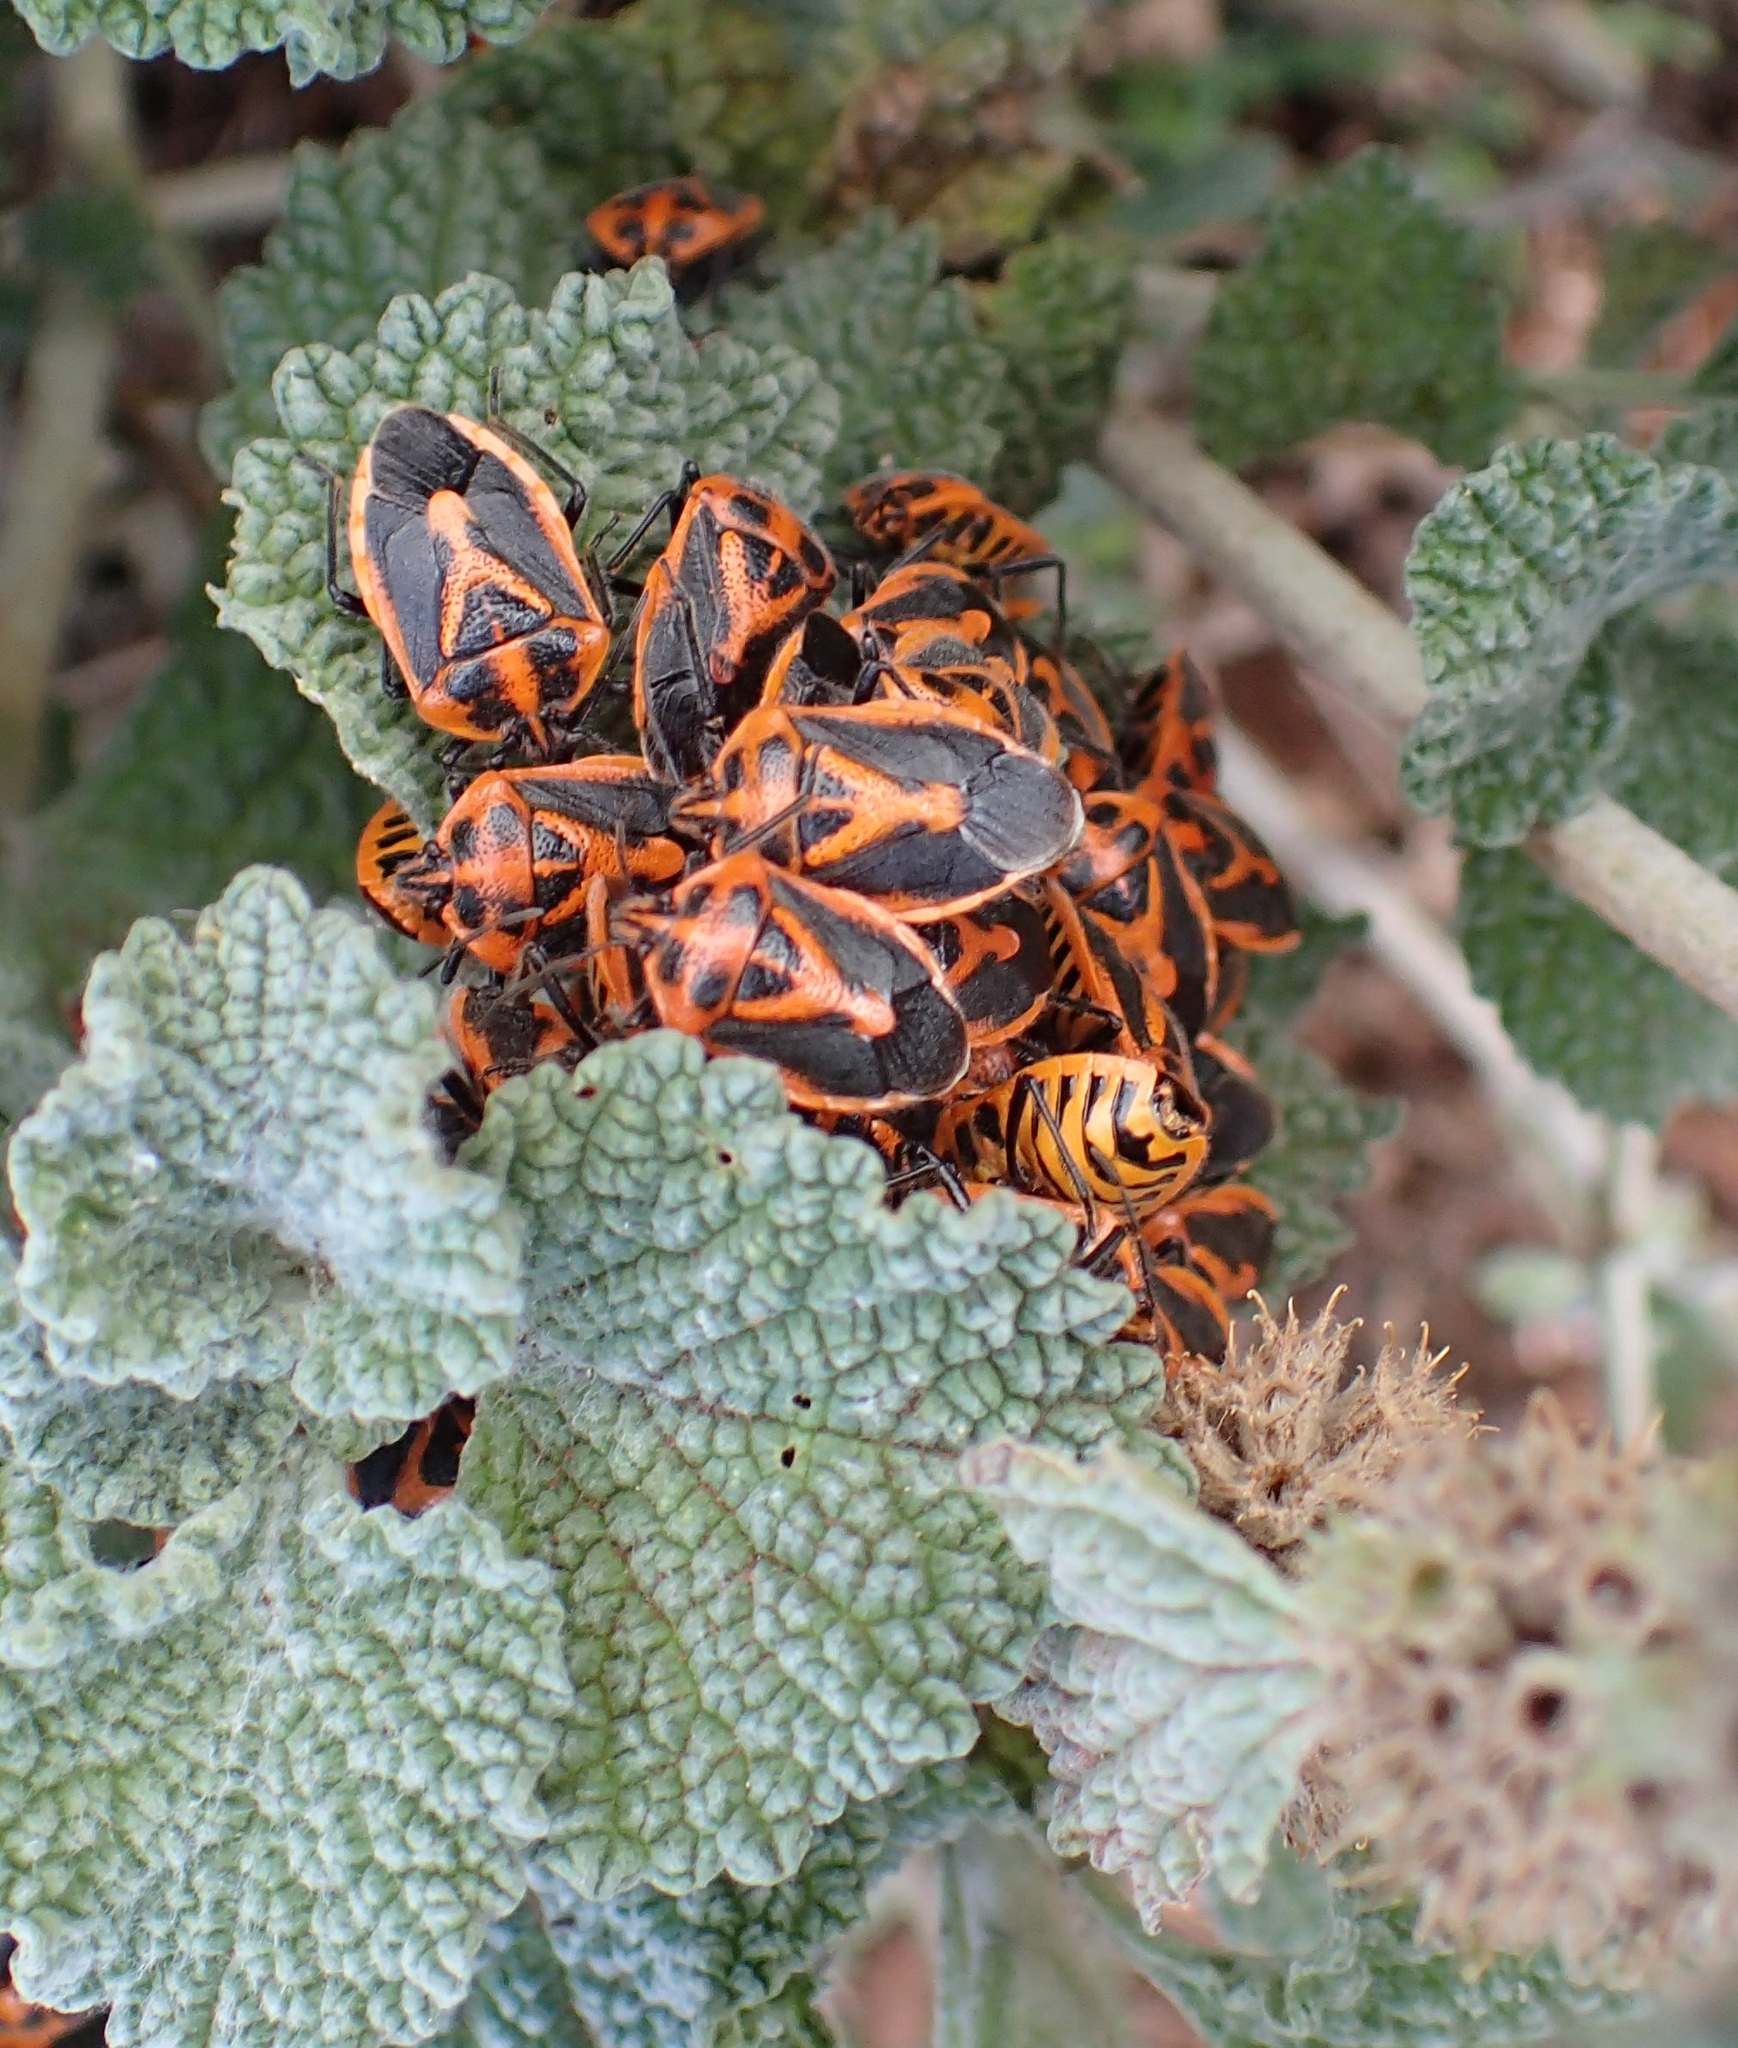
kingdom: Animalia
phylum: Arthropoda
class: Insecta
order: Hemiptera
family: Pentatomidae
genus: Agonoscelis
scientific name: Agonoscelis rutila
